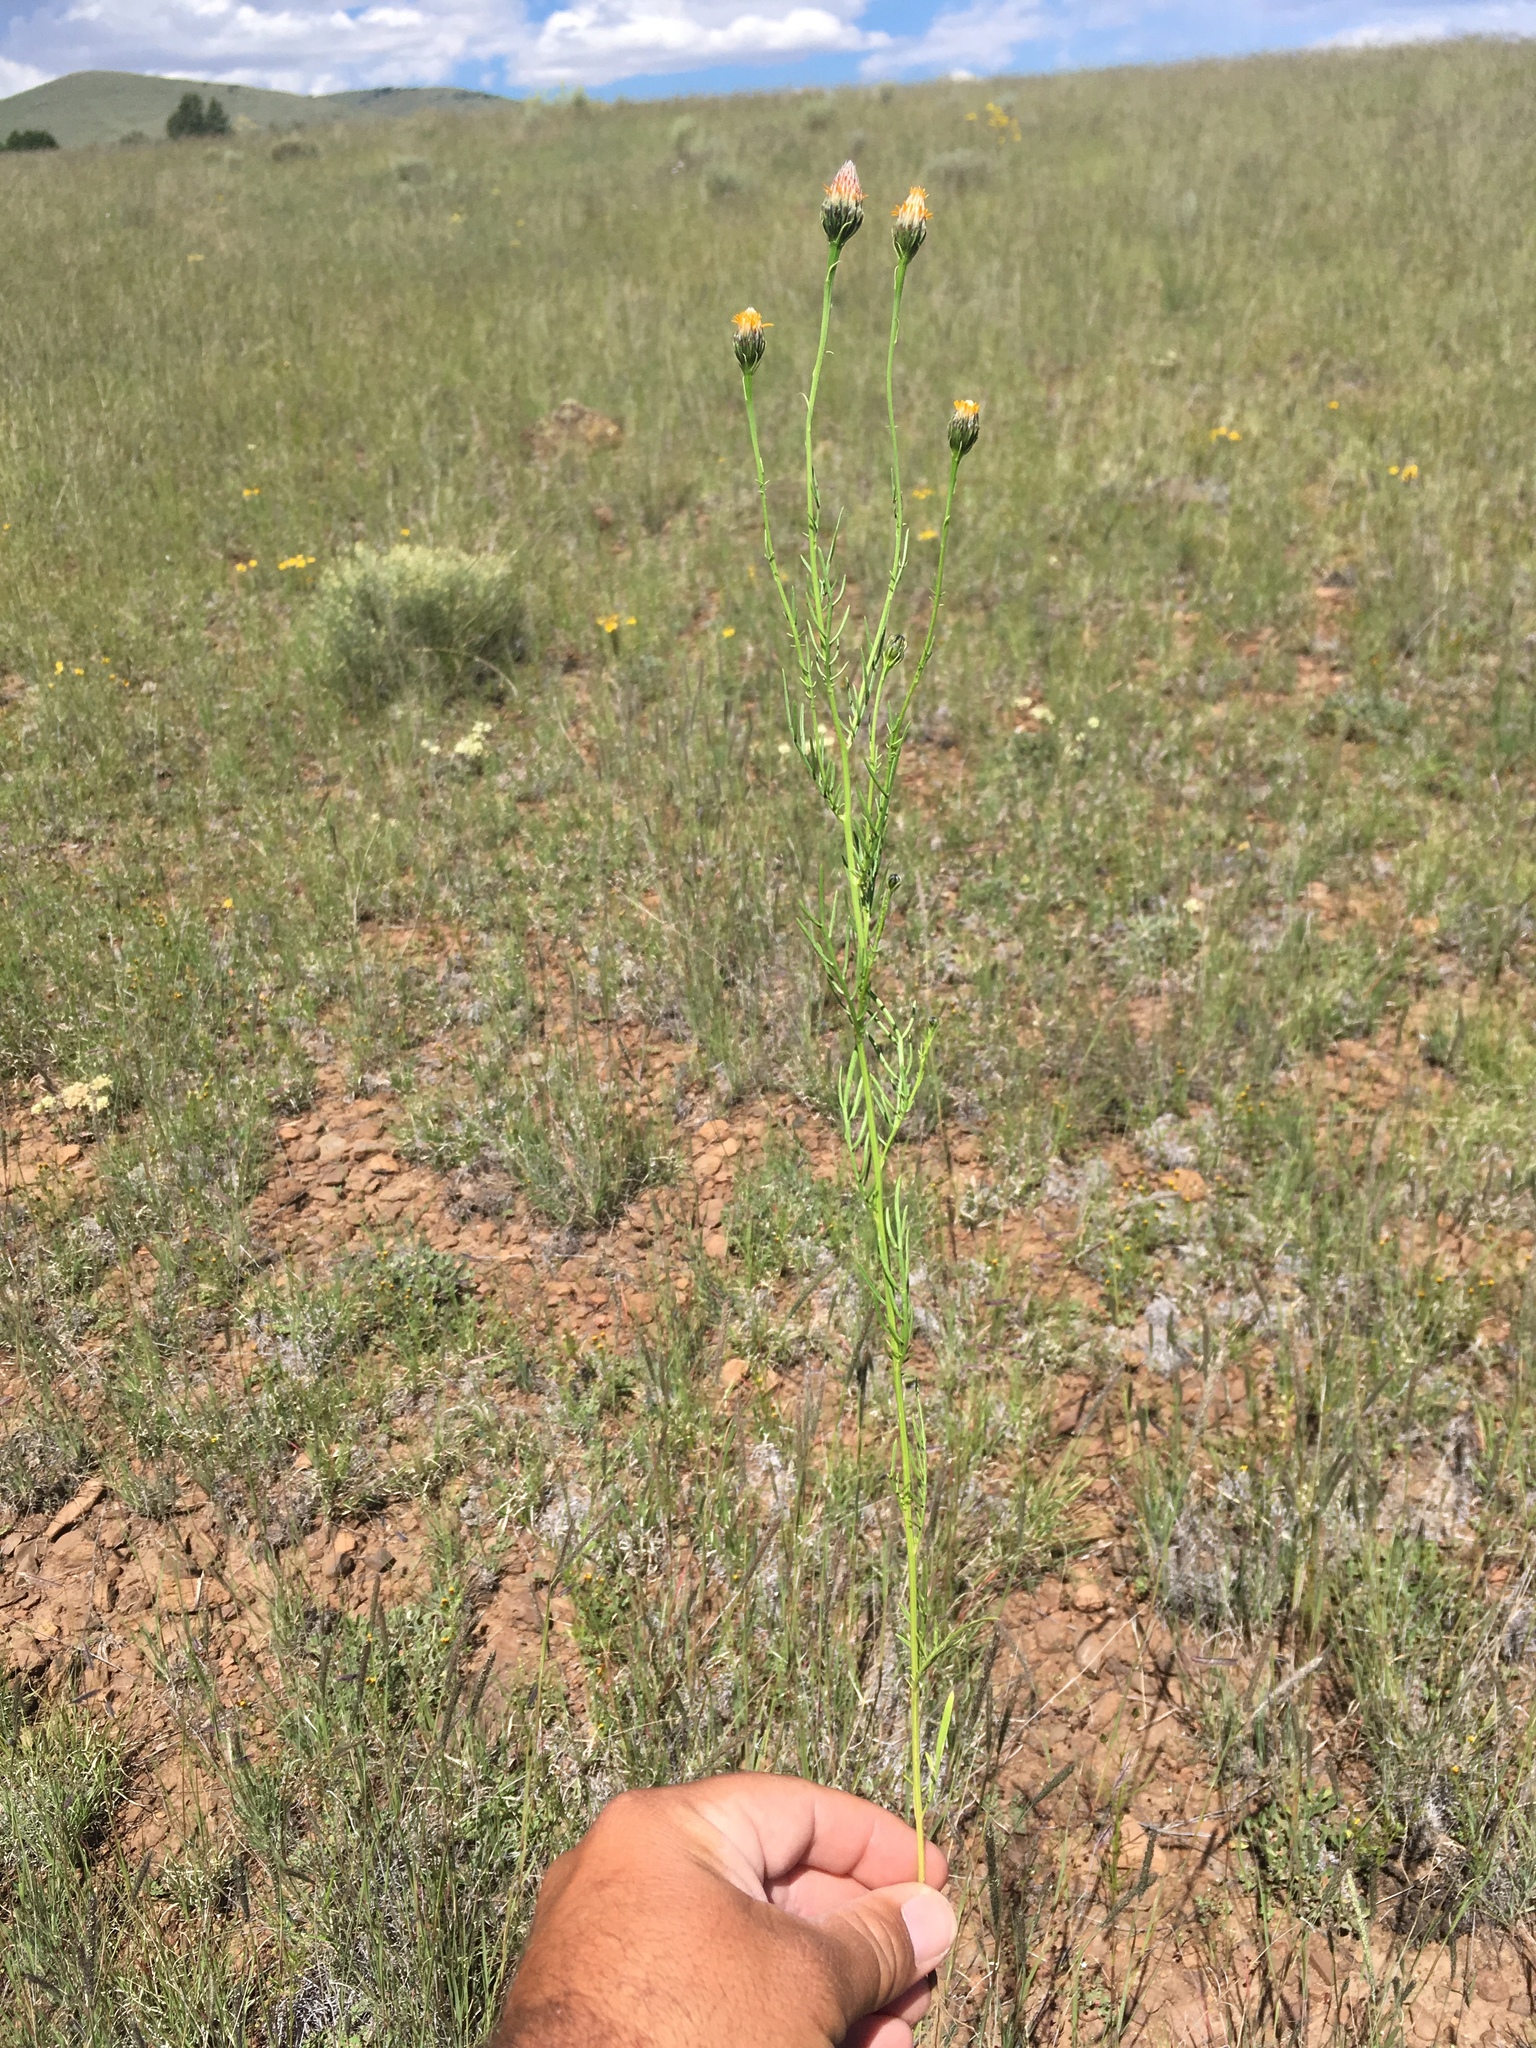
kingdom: Plantae
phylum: Tracheophyta
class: Magnoliopsida
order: Asterales
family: Asteraceae
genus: Adenophyllum
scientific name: Adenophyllum wrightii
